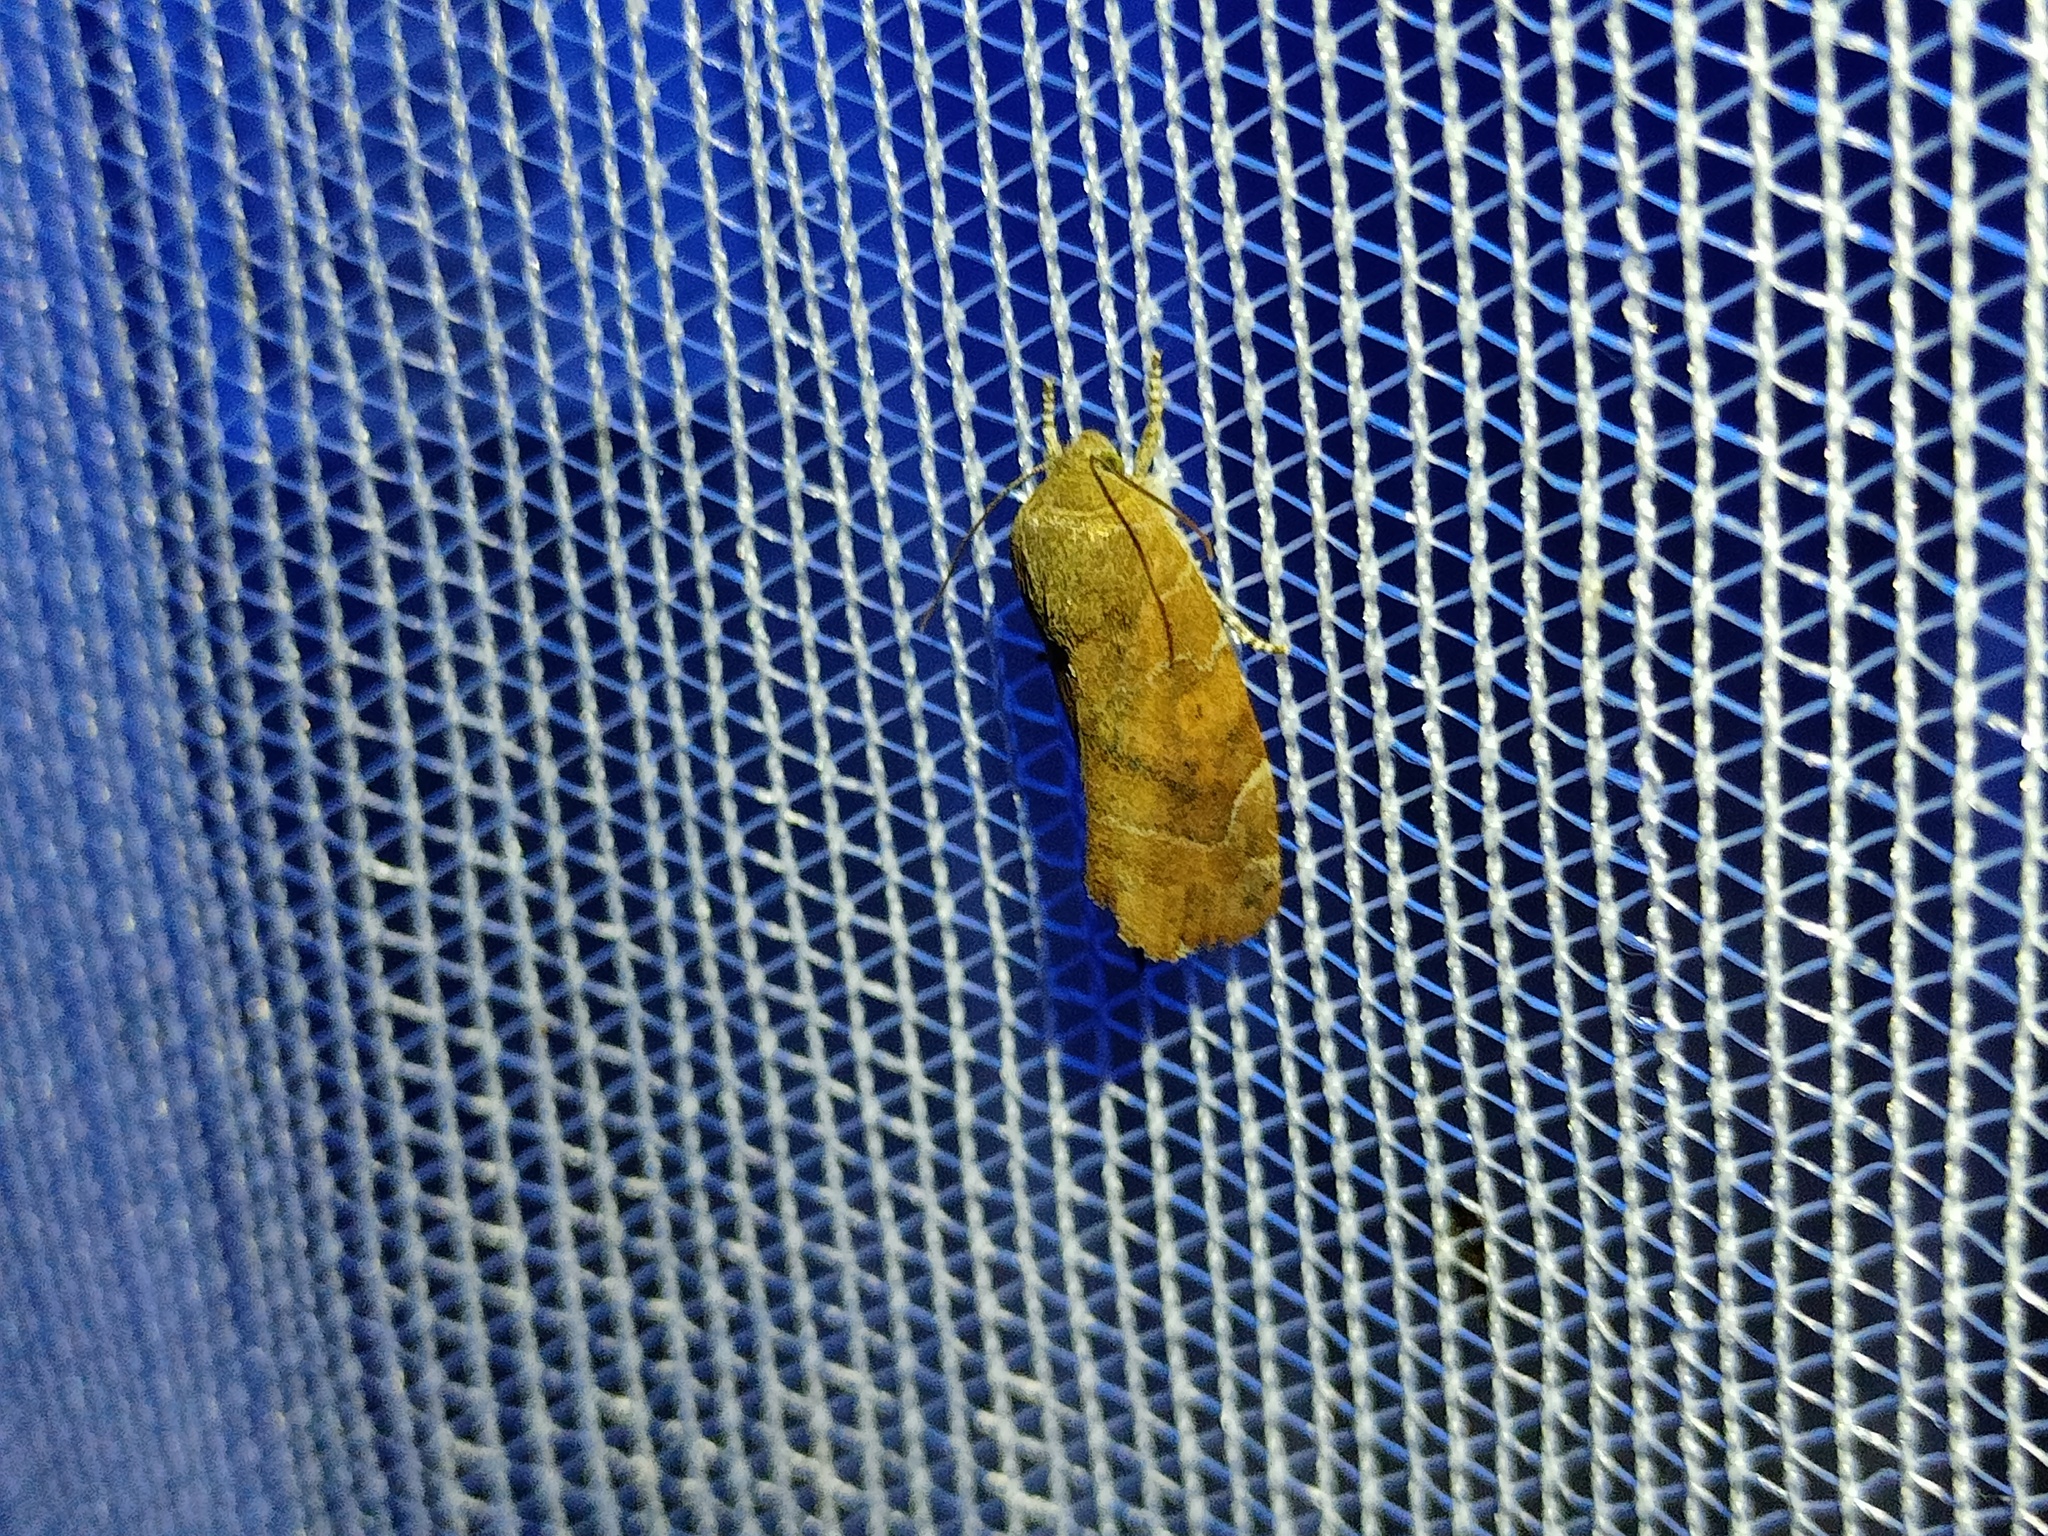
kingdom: Animalia
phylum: Arthropoda
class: Insecta
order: Lepidoptera
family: Noctuidae
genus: Cosmia
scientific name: Cosmia affinis
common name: Lesser-spotted pinion
